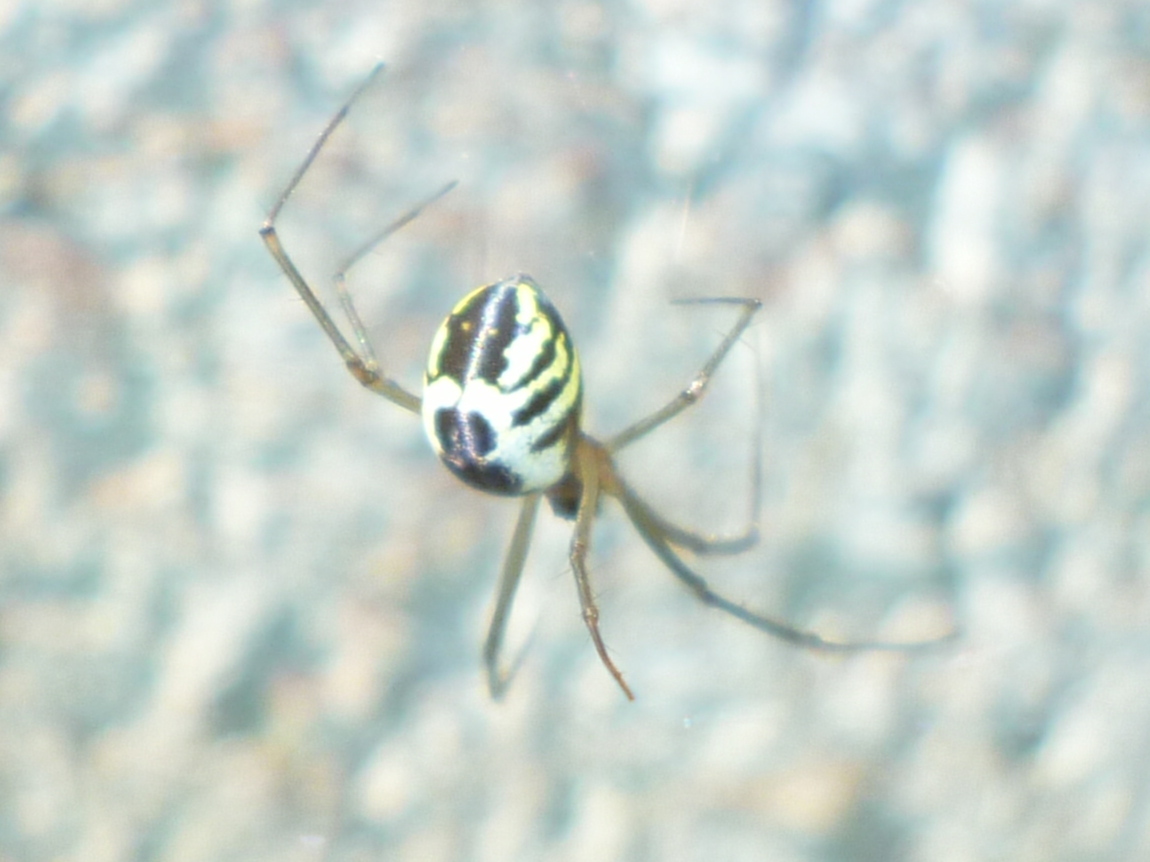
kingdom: Animalia
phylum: Arthropoda
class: Arachnida
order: Araneae
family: Linyphiidae
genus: Neriene
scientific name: Neriene radiata
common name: Filmy dome spider
